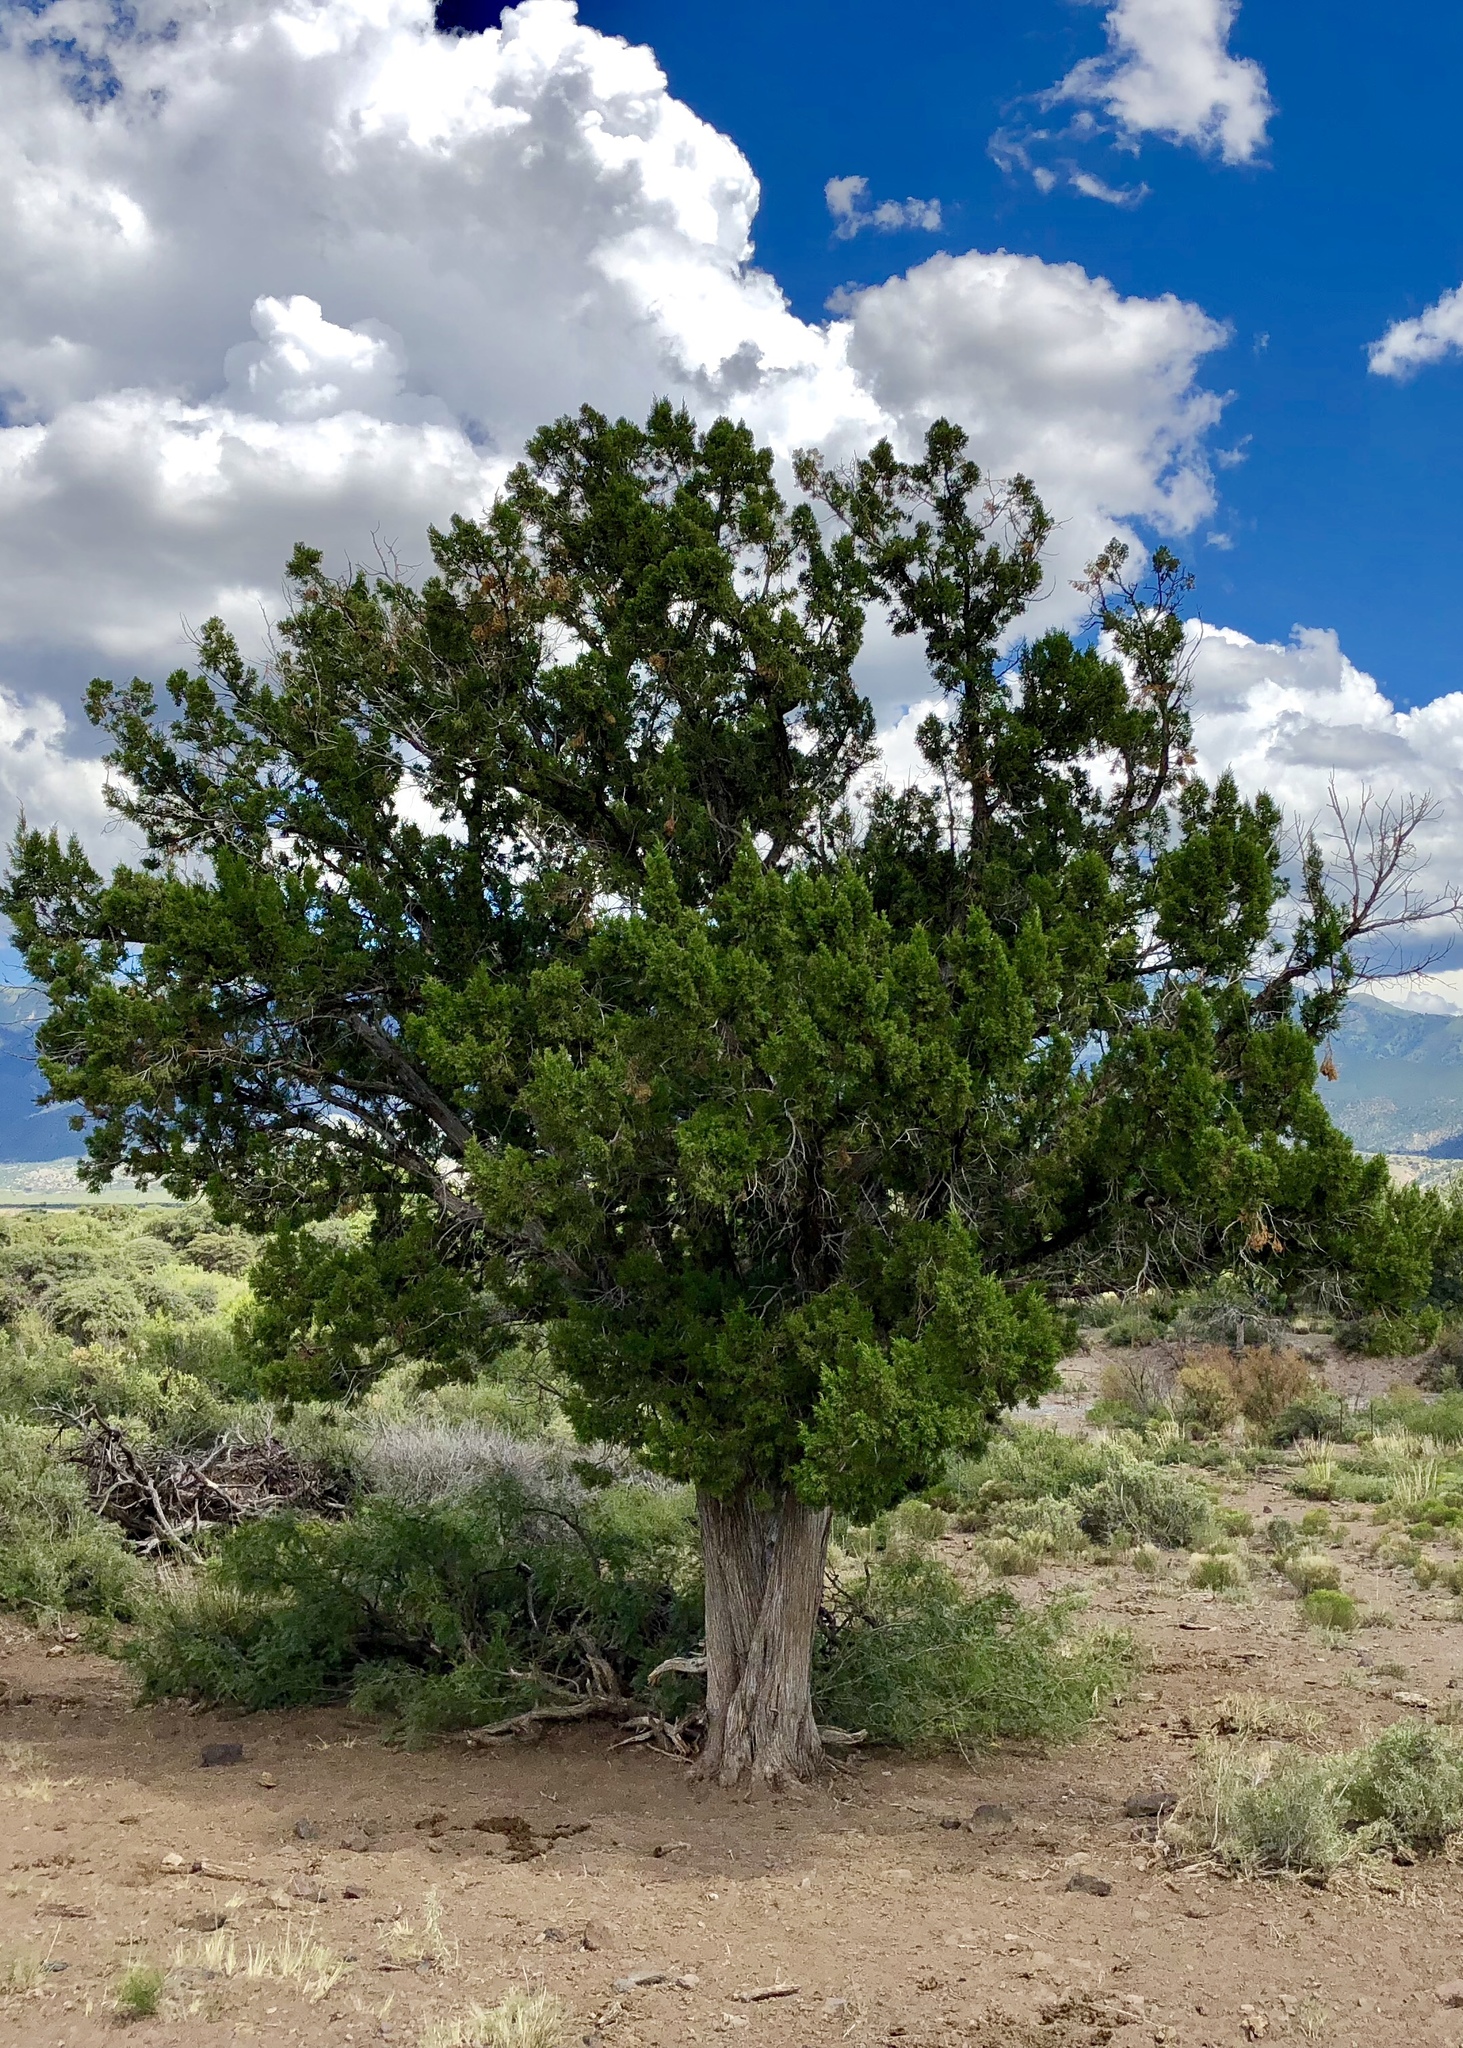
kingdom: Plantae
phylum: Tracheophyta
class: Pinopsida
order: Pinales
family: Cupressaceae
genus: Juniperus
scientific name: Juniperus monosperma
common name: One-seed juniper
